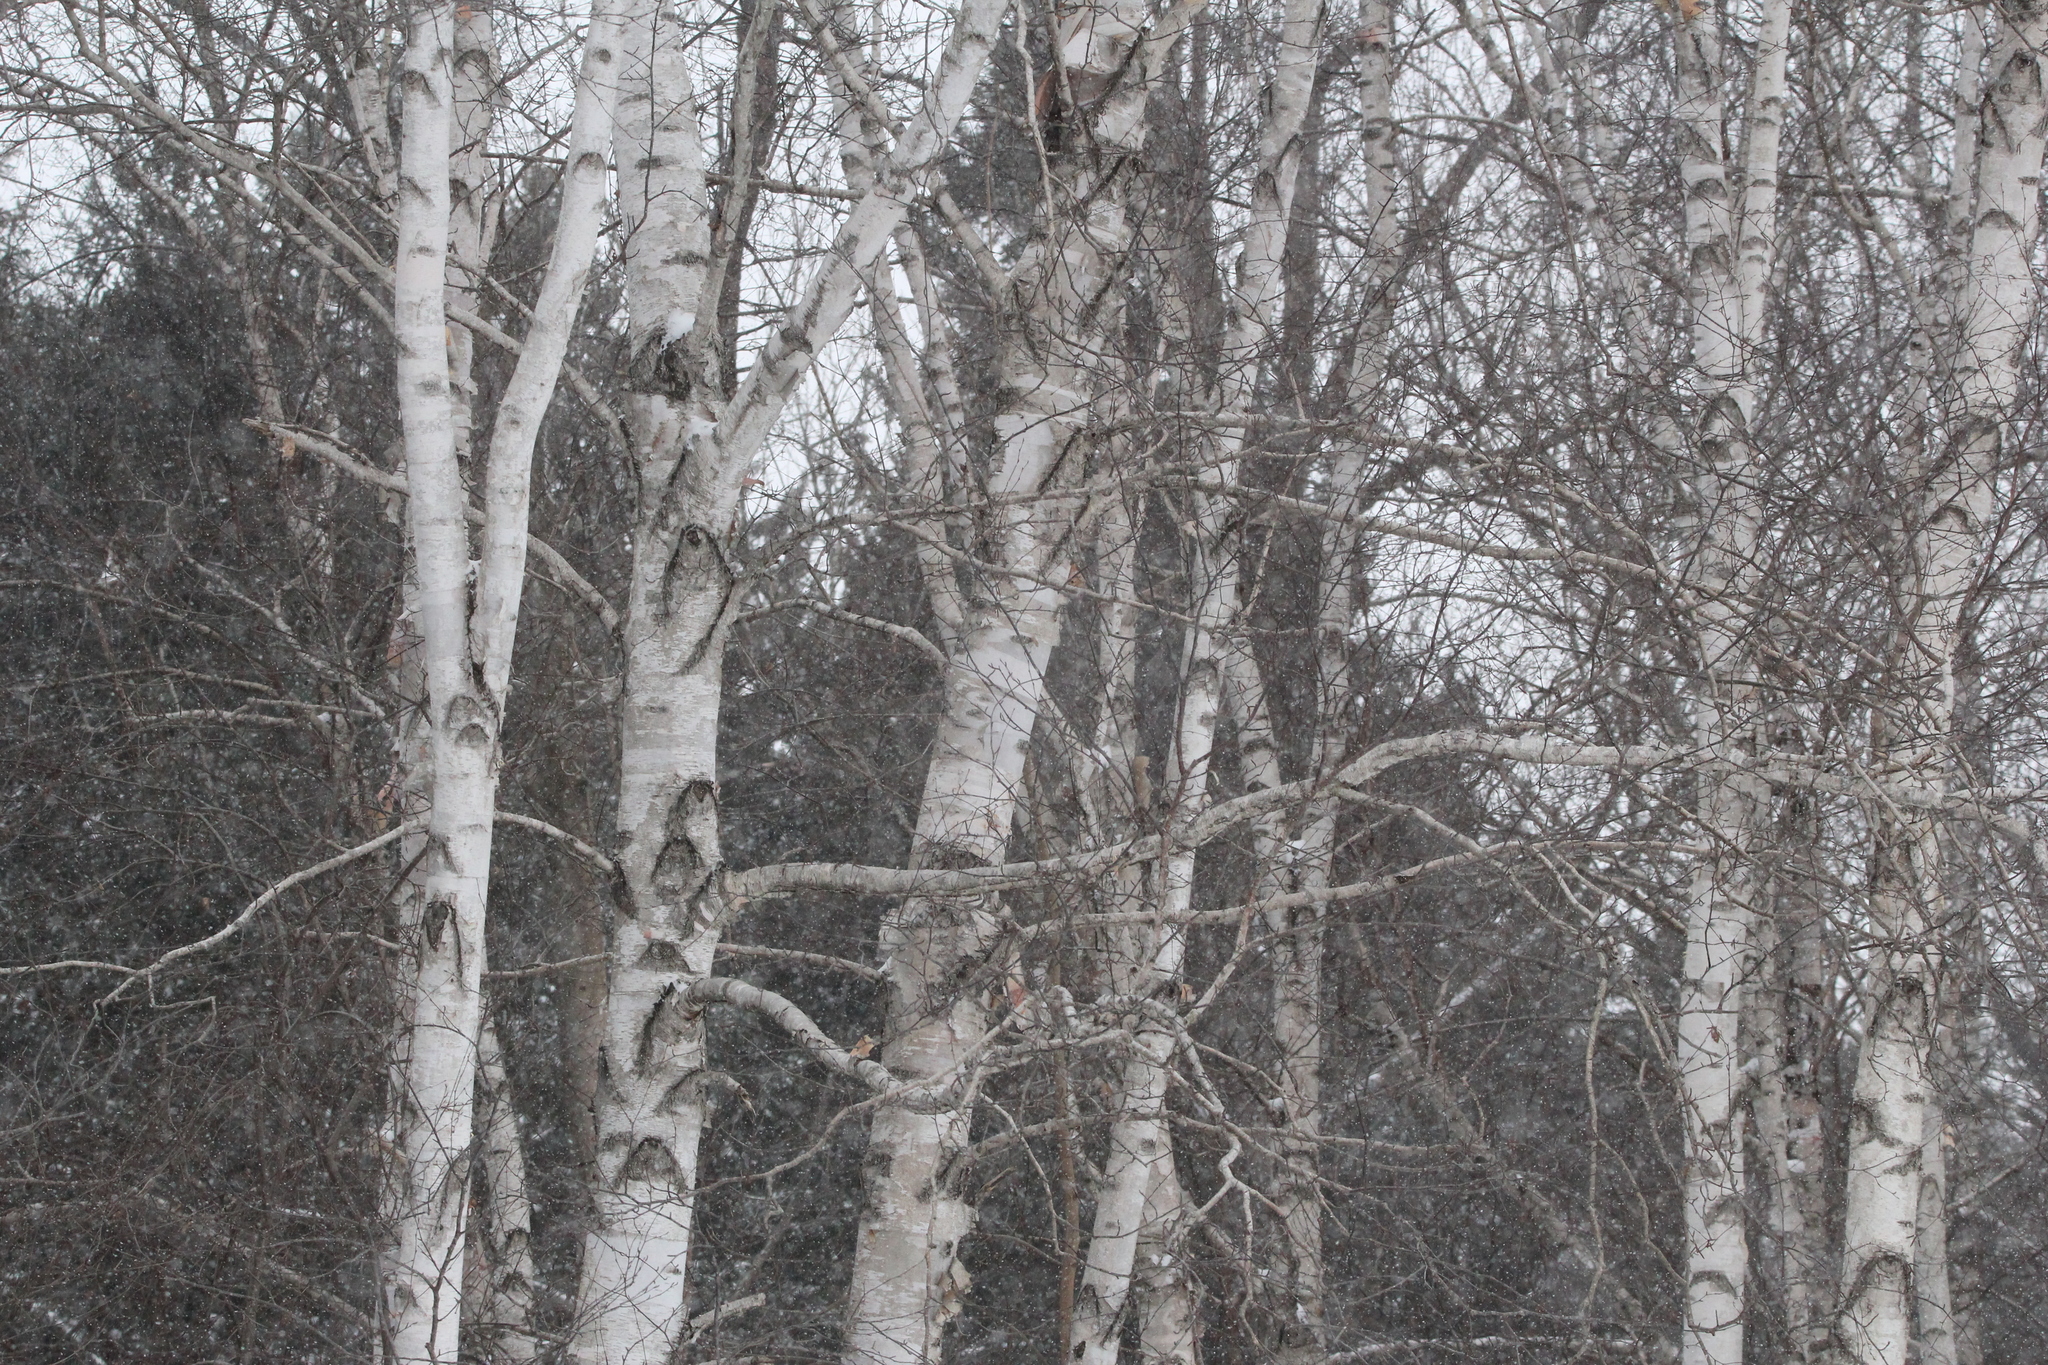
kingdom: Plantae
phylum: Tracheophyta
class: Magnoliopsida
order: Fagales
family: Betulaceae
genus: Betula
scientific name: Betula papyrifera
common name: Paper birch
